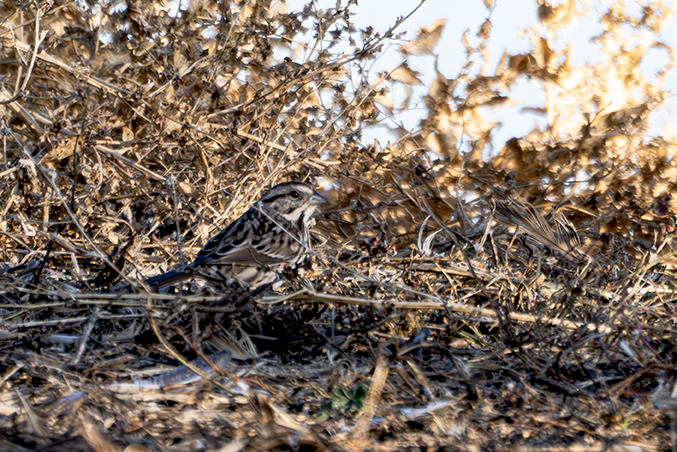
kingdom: Animalia
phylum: Chordata
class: Aves
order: Passeriformes
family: Passerellidae
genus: Melospiza
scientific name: Melospiza melodia
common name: Song sparrow
